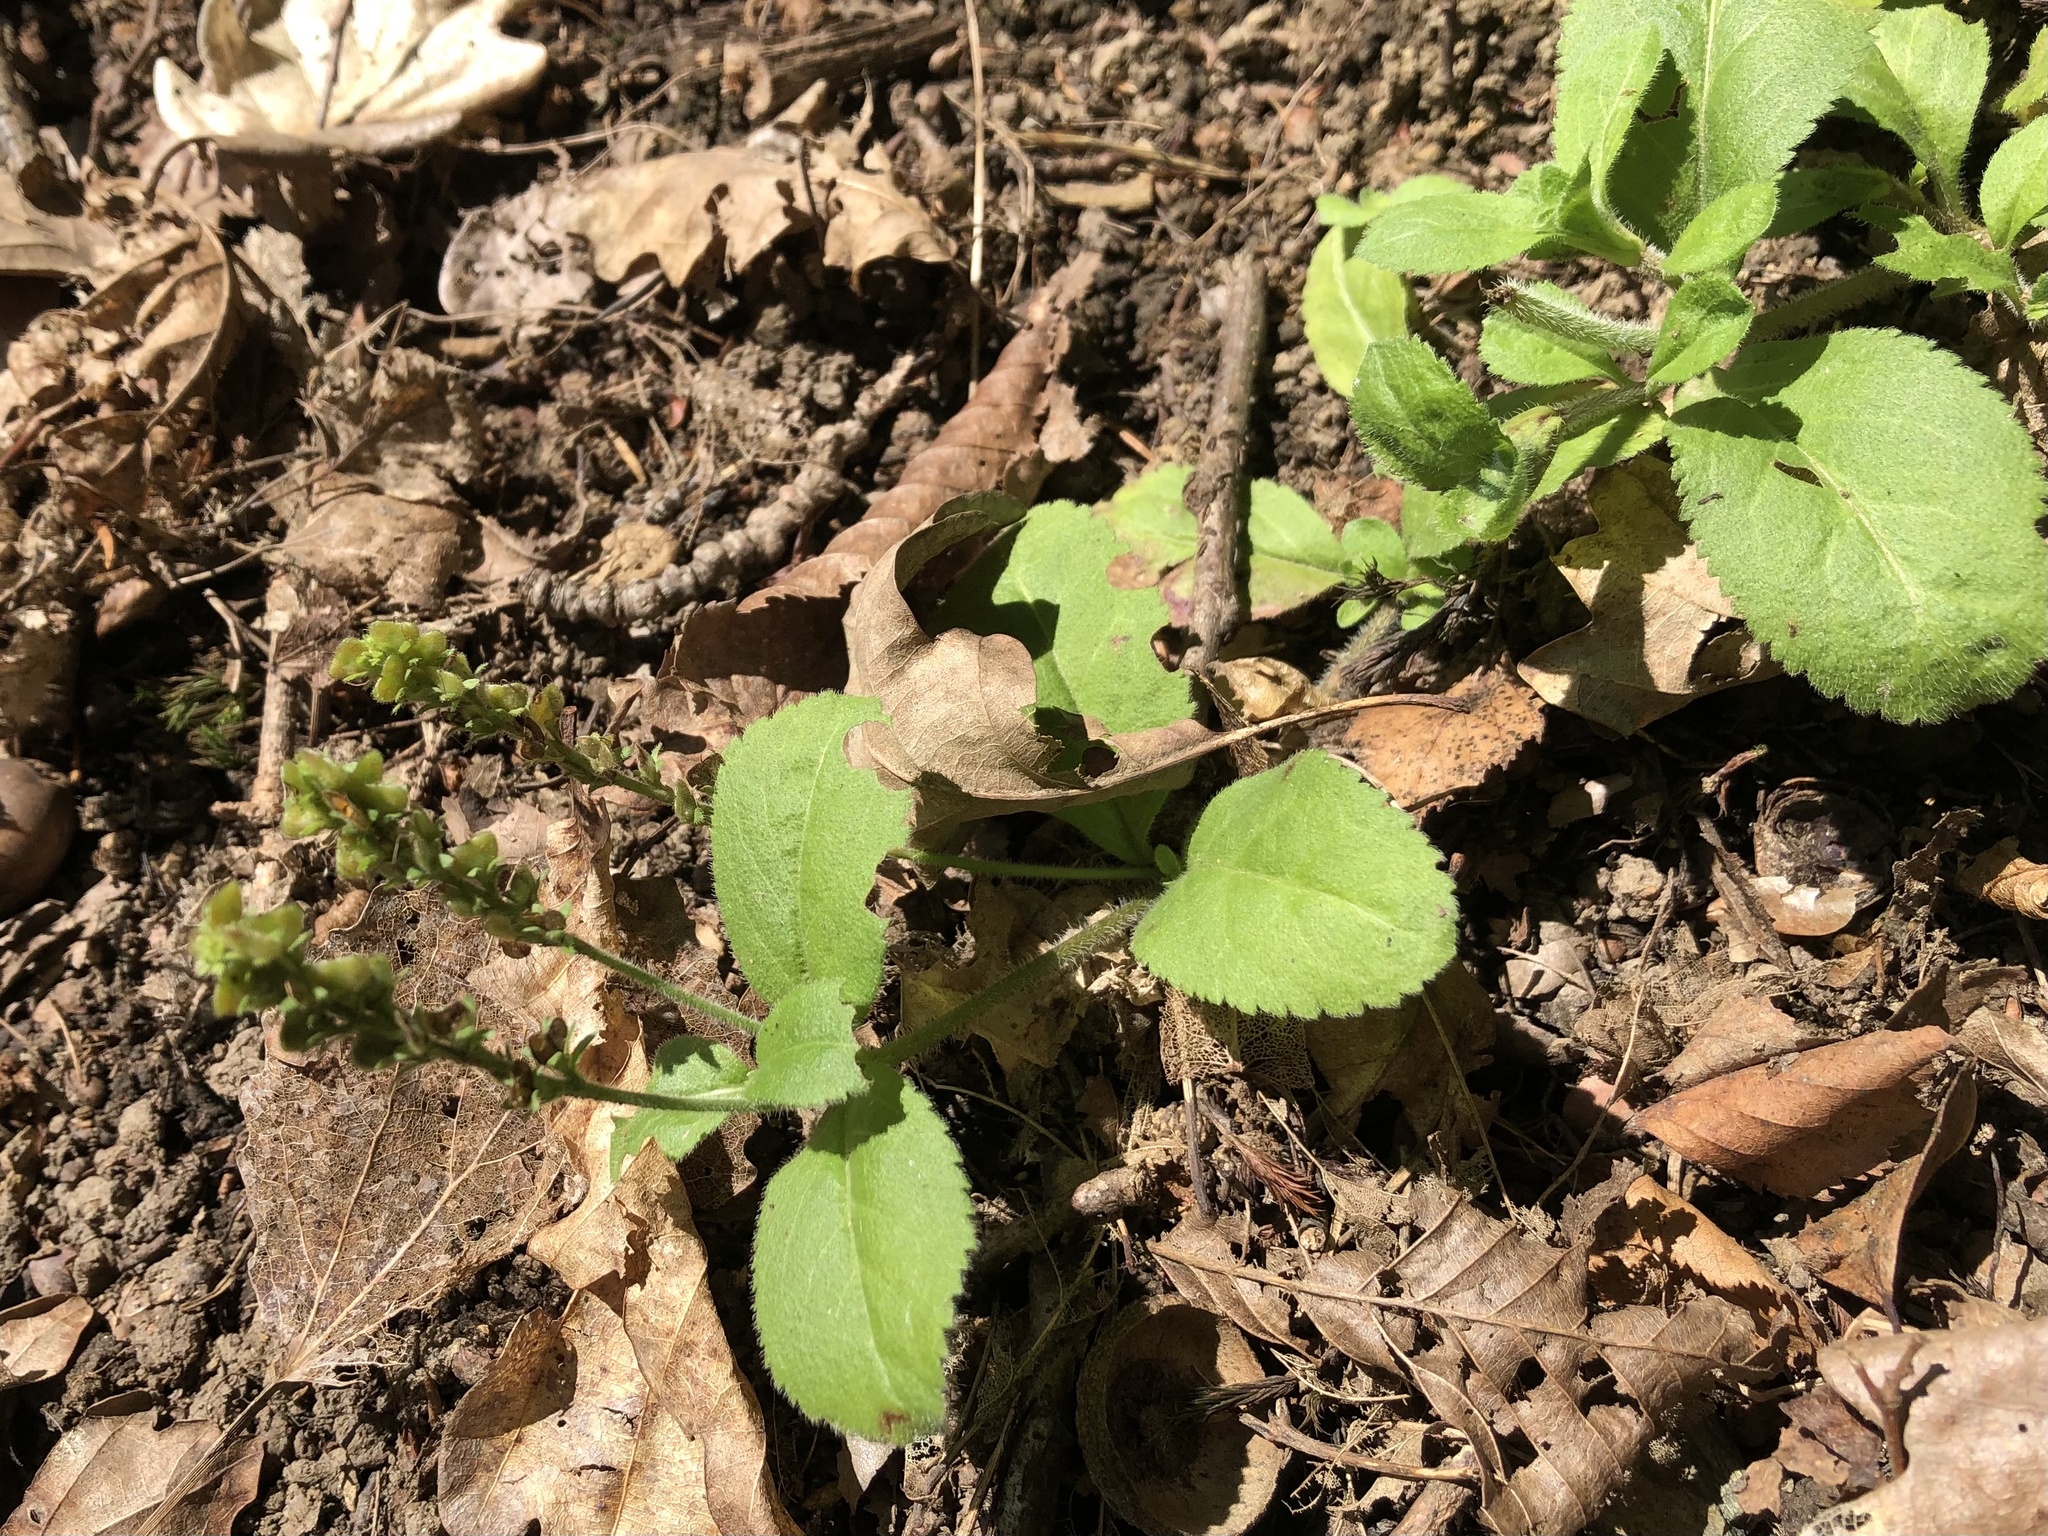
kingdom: Plantae
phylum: Tracheophyta
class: Magnoliopsida
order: Lamiales
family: Plantaginaceae
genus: Veronica
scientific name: Veronica officinalis
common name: Common speedwell
